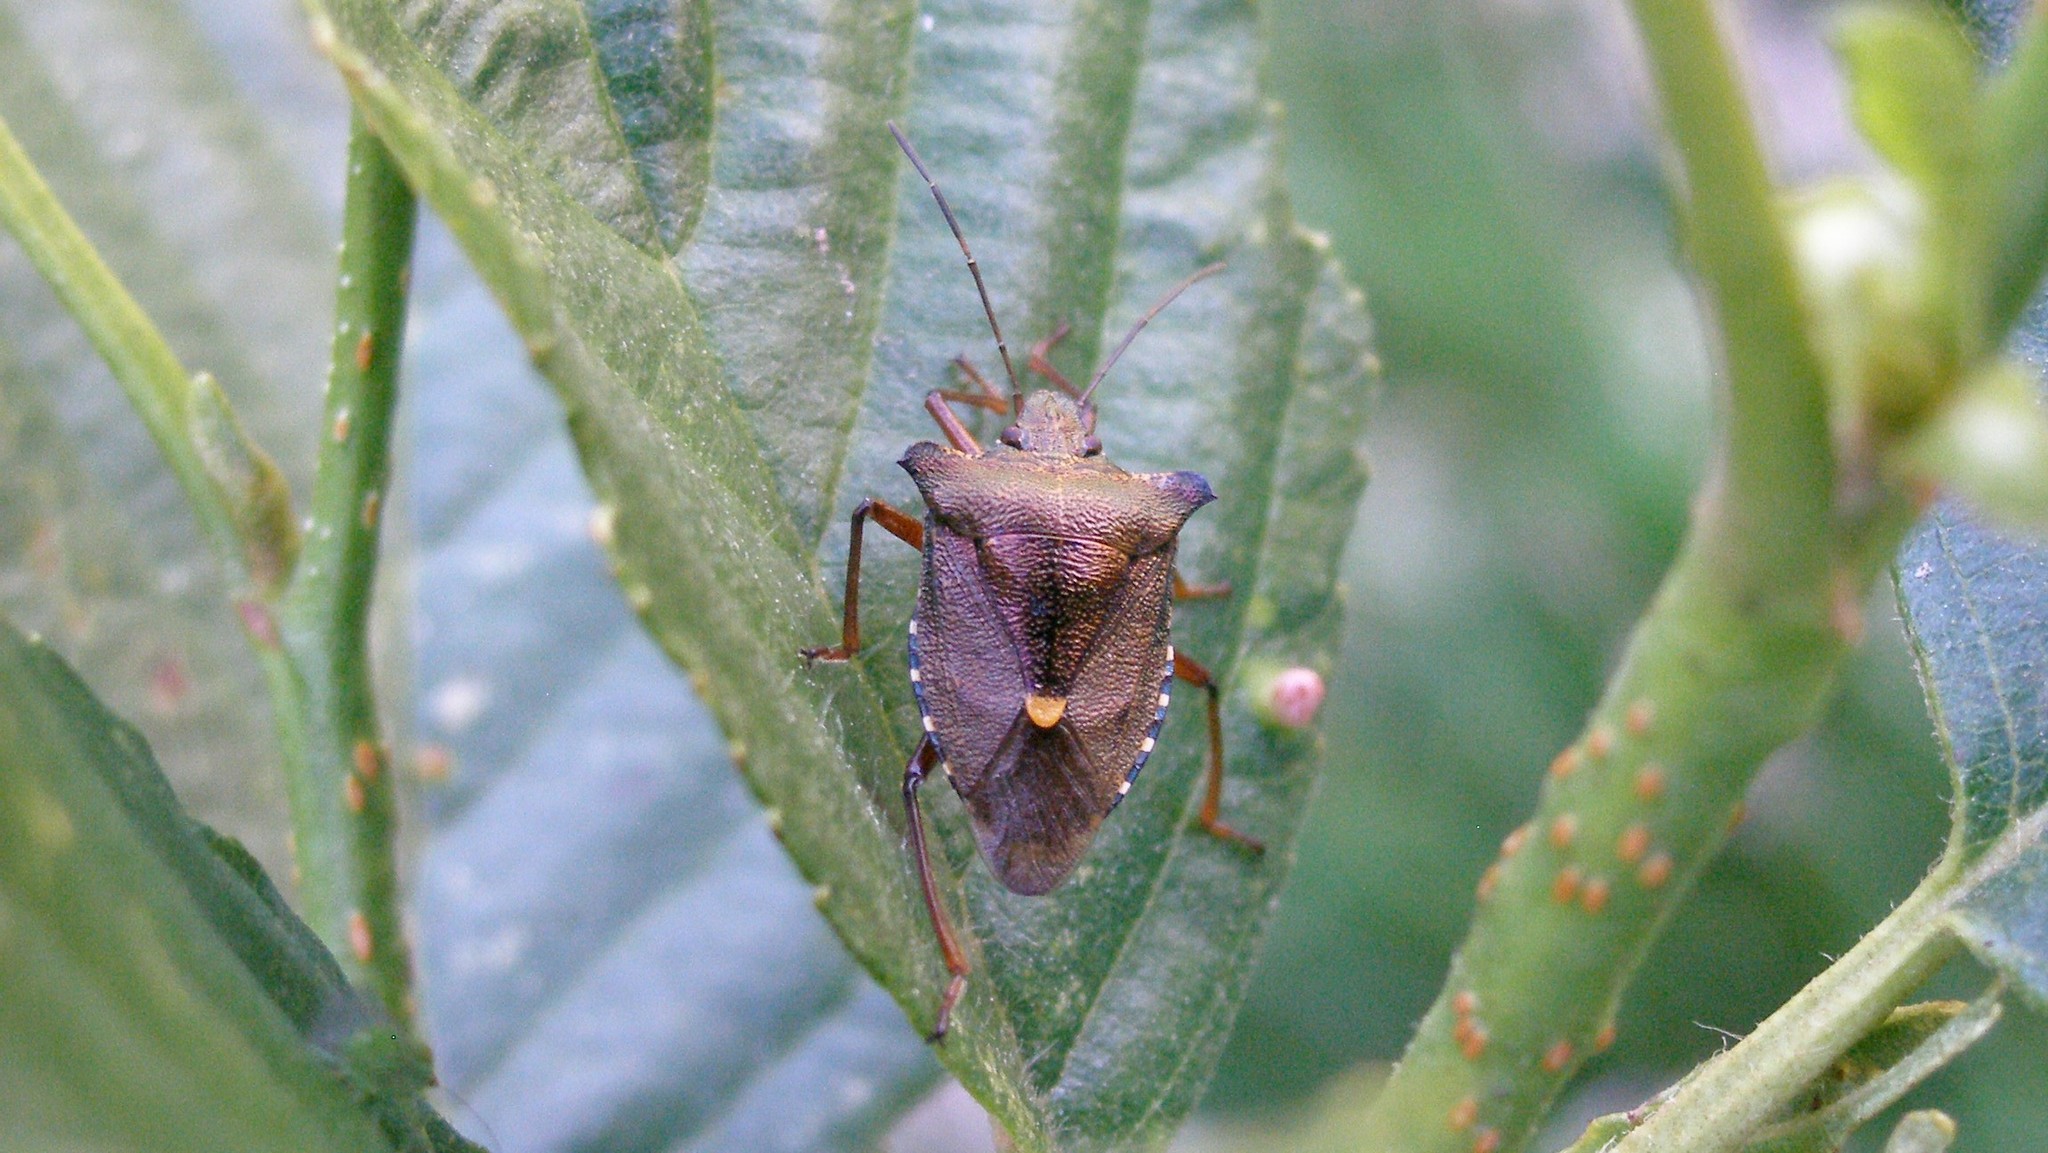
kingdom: Animalia
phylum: Arthropoda
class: Insecta
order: Hemiptera
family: Pentatomidae
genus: Pentatoma
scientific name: Pentatoma rufipes
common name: Forest bug
